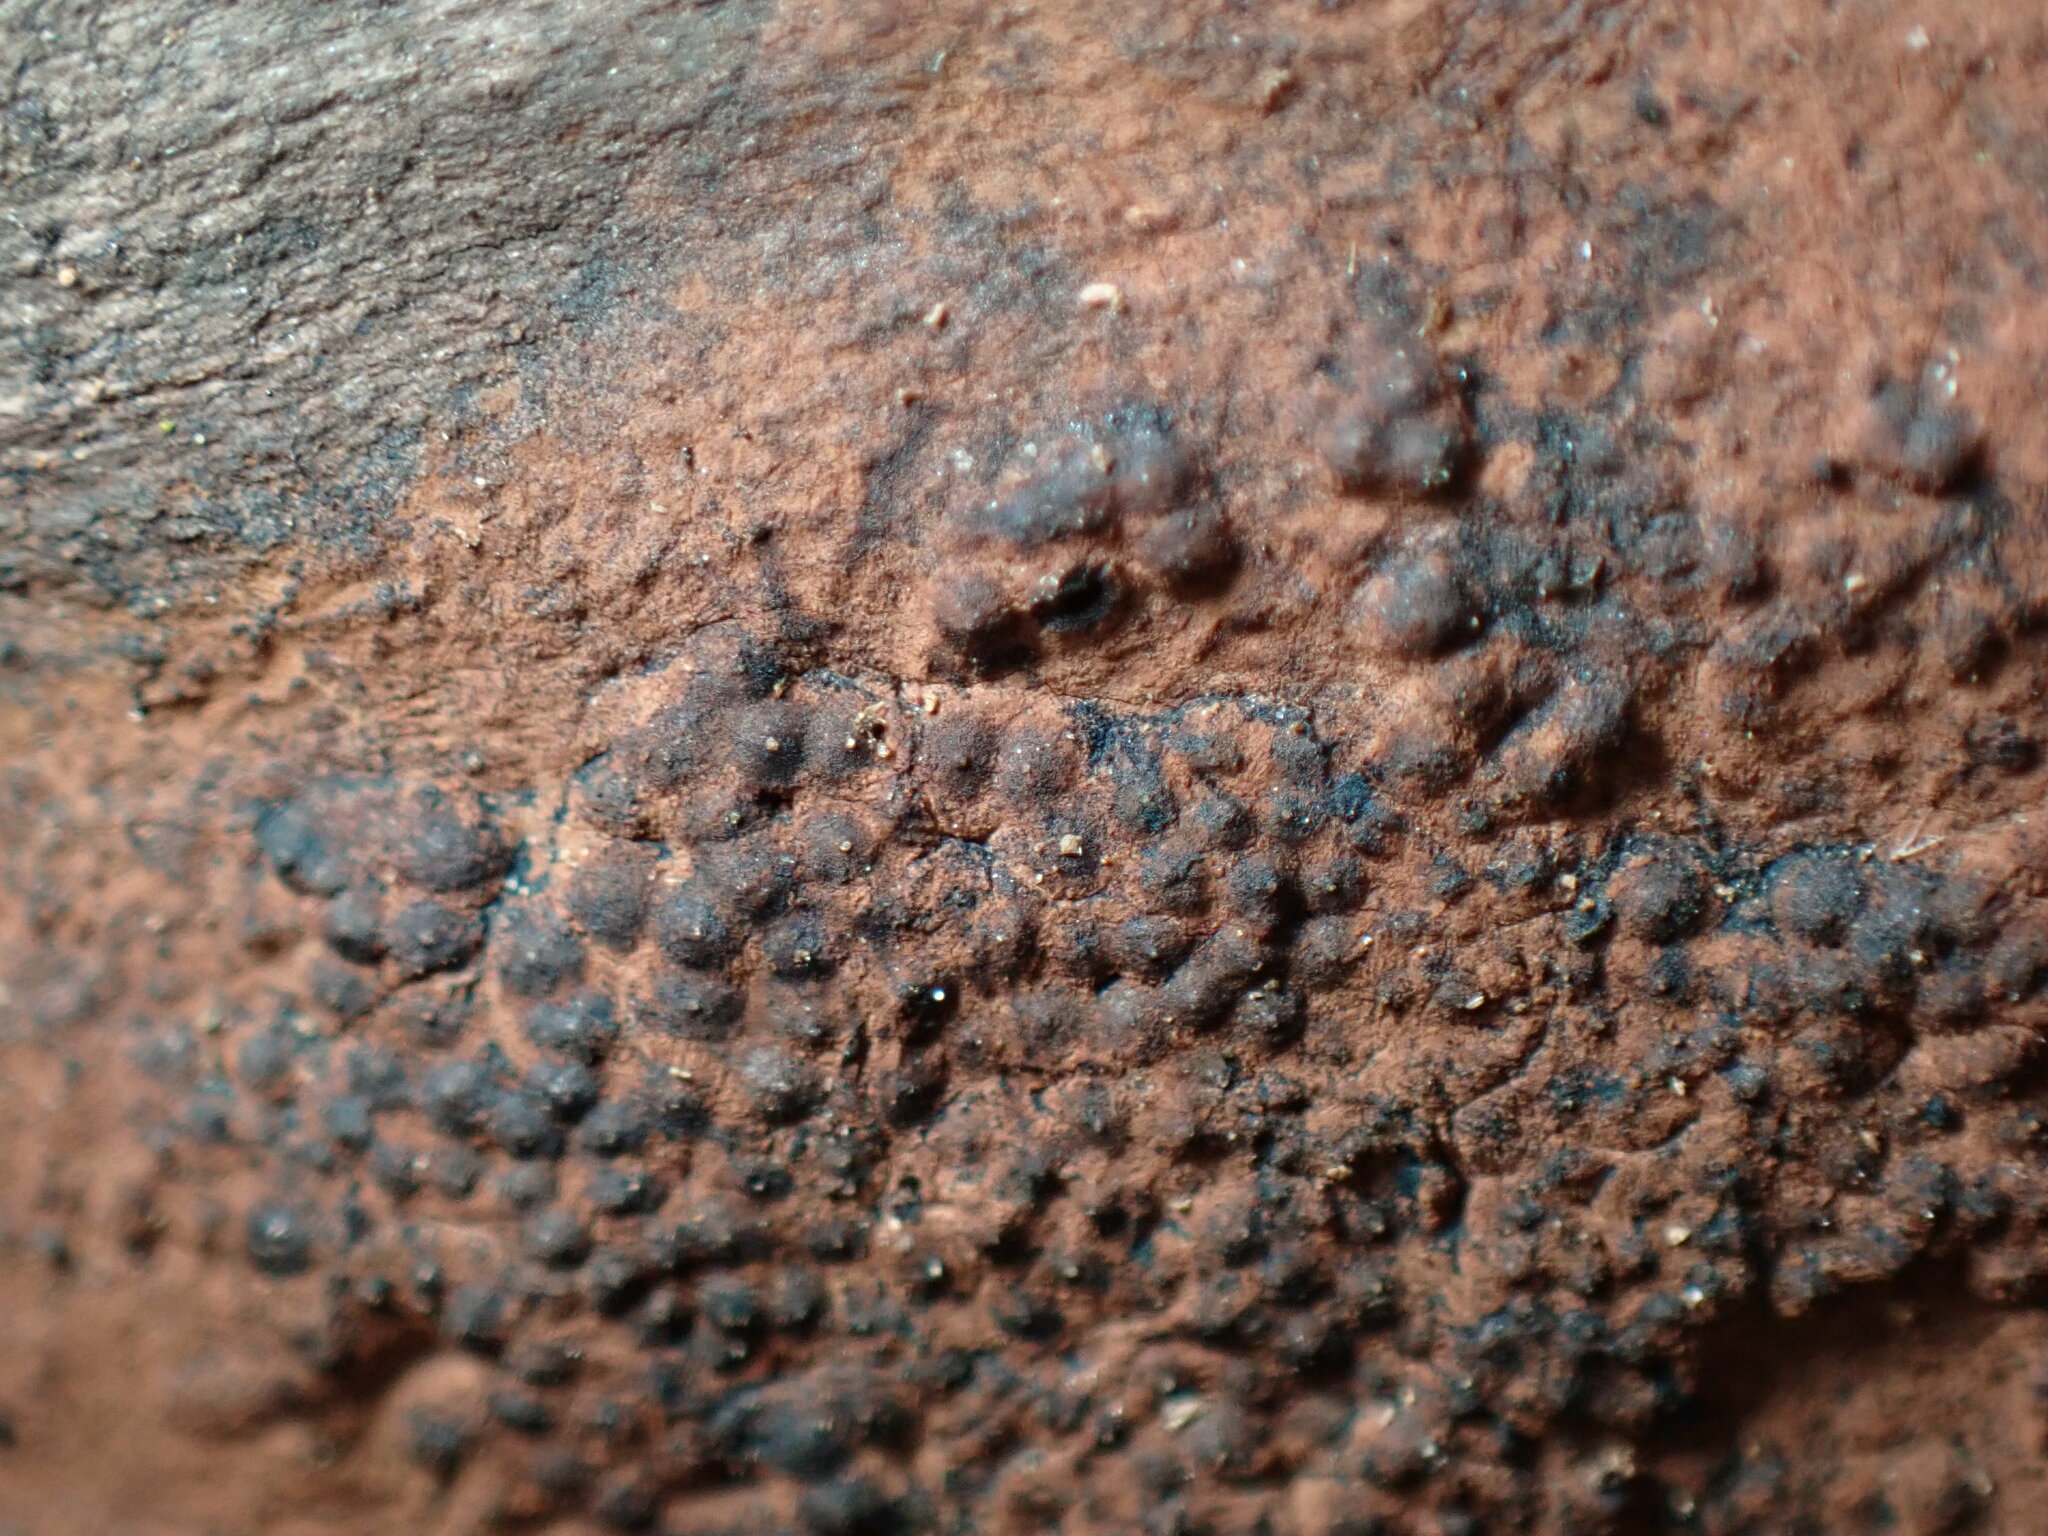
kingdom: Fungi
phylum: Ascomycota
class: Sordariomycetes
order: Xylariales
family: Hypoxylaceae
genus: Hypoxylon
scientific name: Hypoxylon rubiginosum
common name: Rusty woodwart
